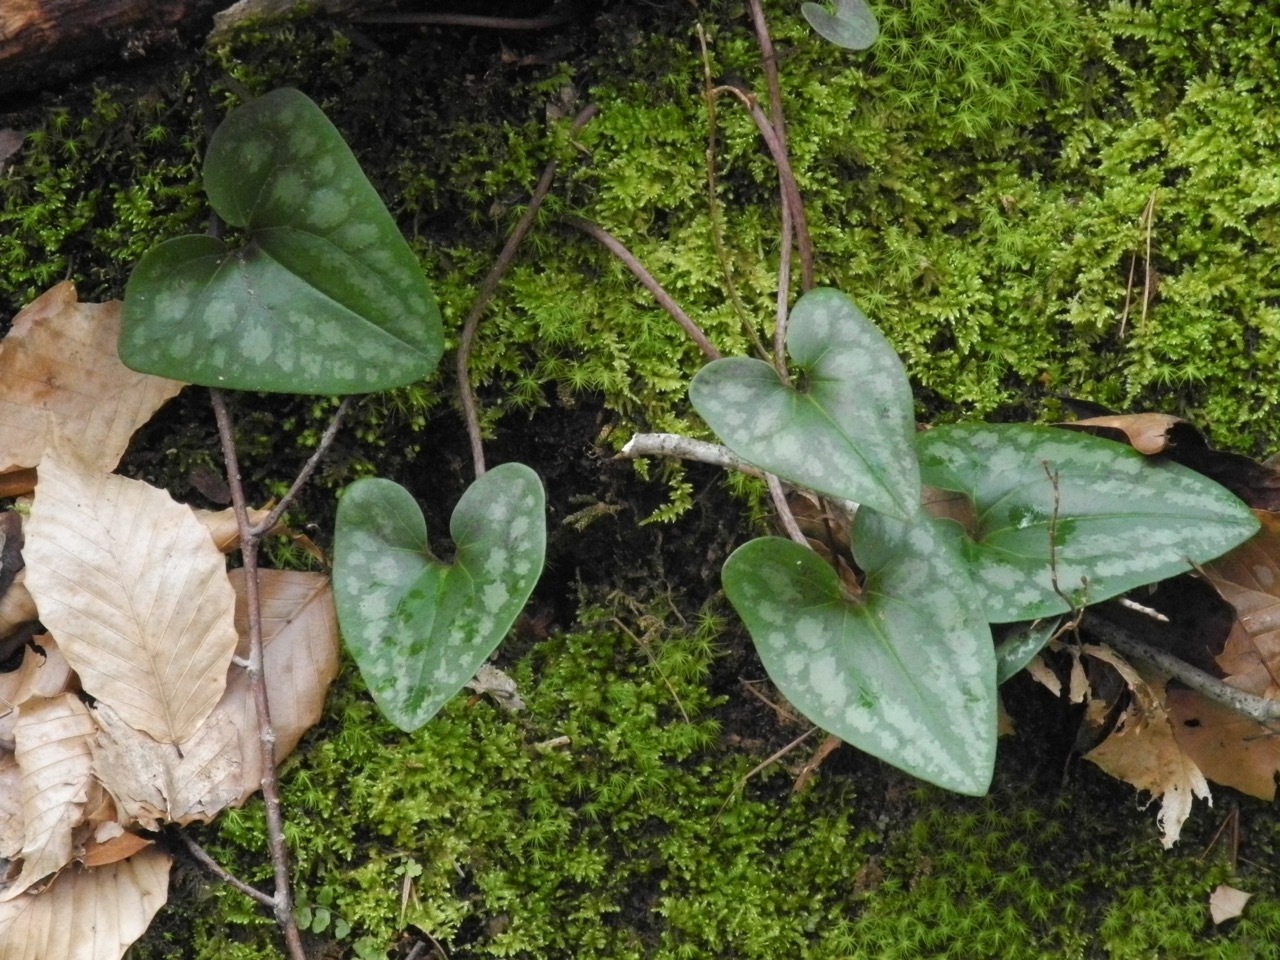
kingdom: Plantae
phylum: Tracheophyta
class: Magnoliopsida
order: Piperales
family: Aristolochiaceae
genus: Hexastylis
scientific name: Hexastylis arifolia
